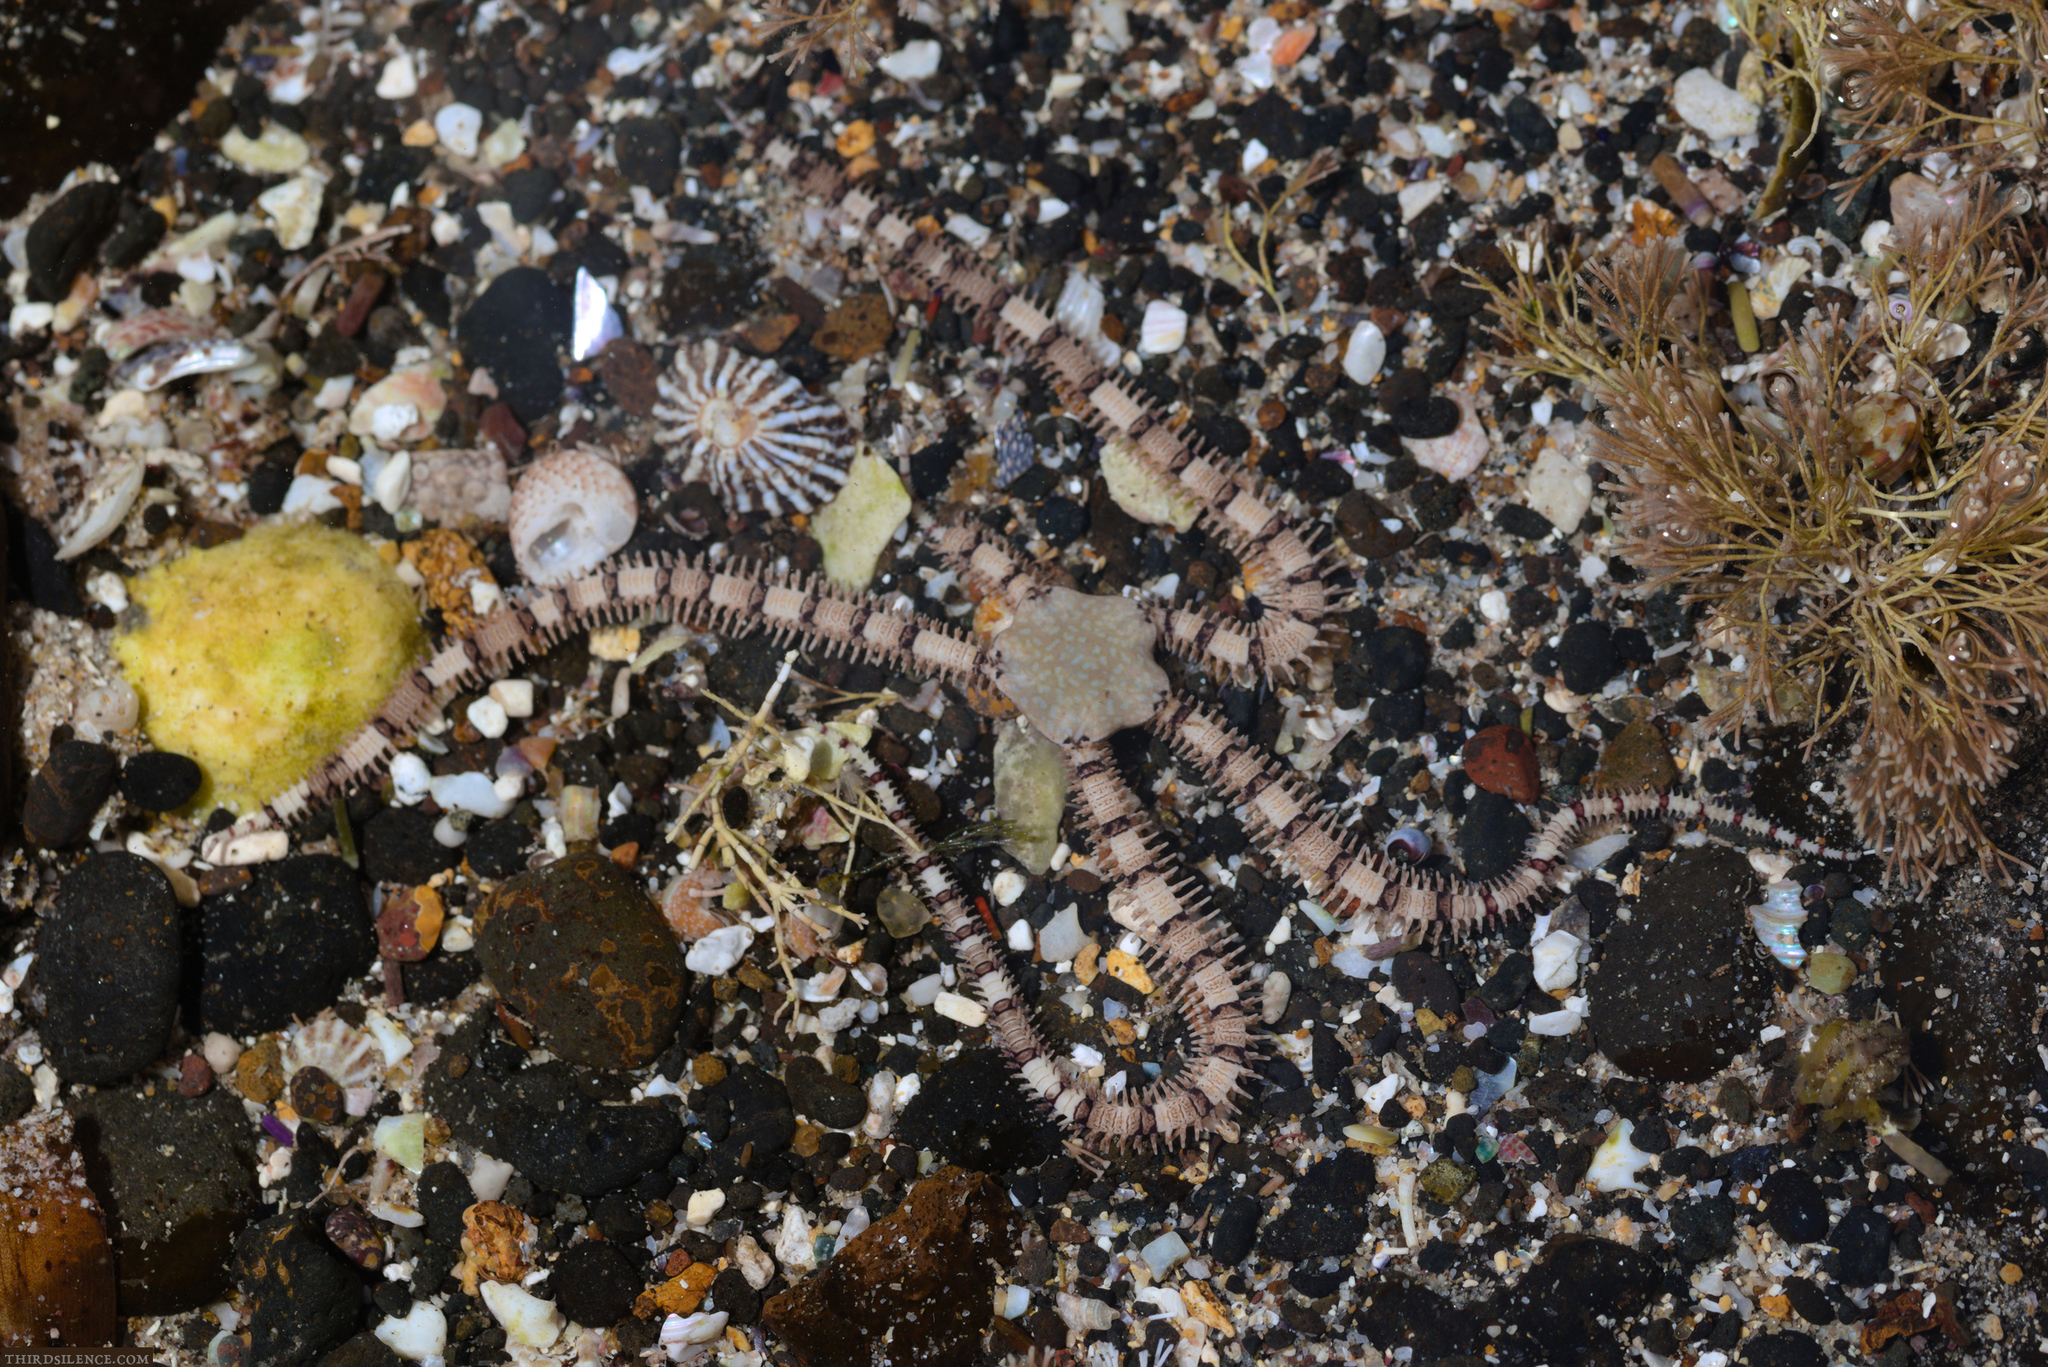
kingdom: Animalia
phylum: Echinodermata
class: Ophiuroidea
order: Amphilepidida
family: Ophionereididae
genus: Ophionereis
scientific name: Ophionereis schayeri
